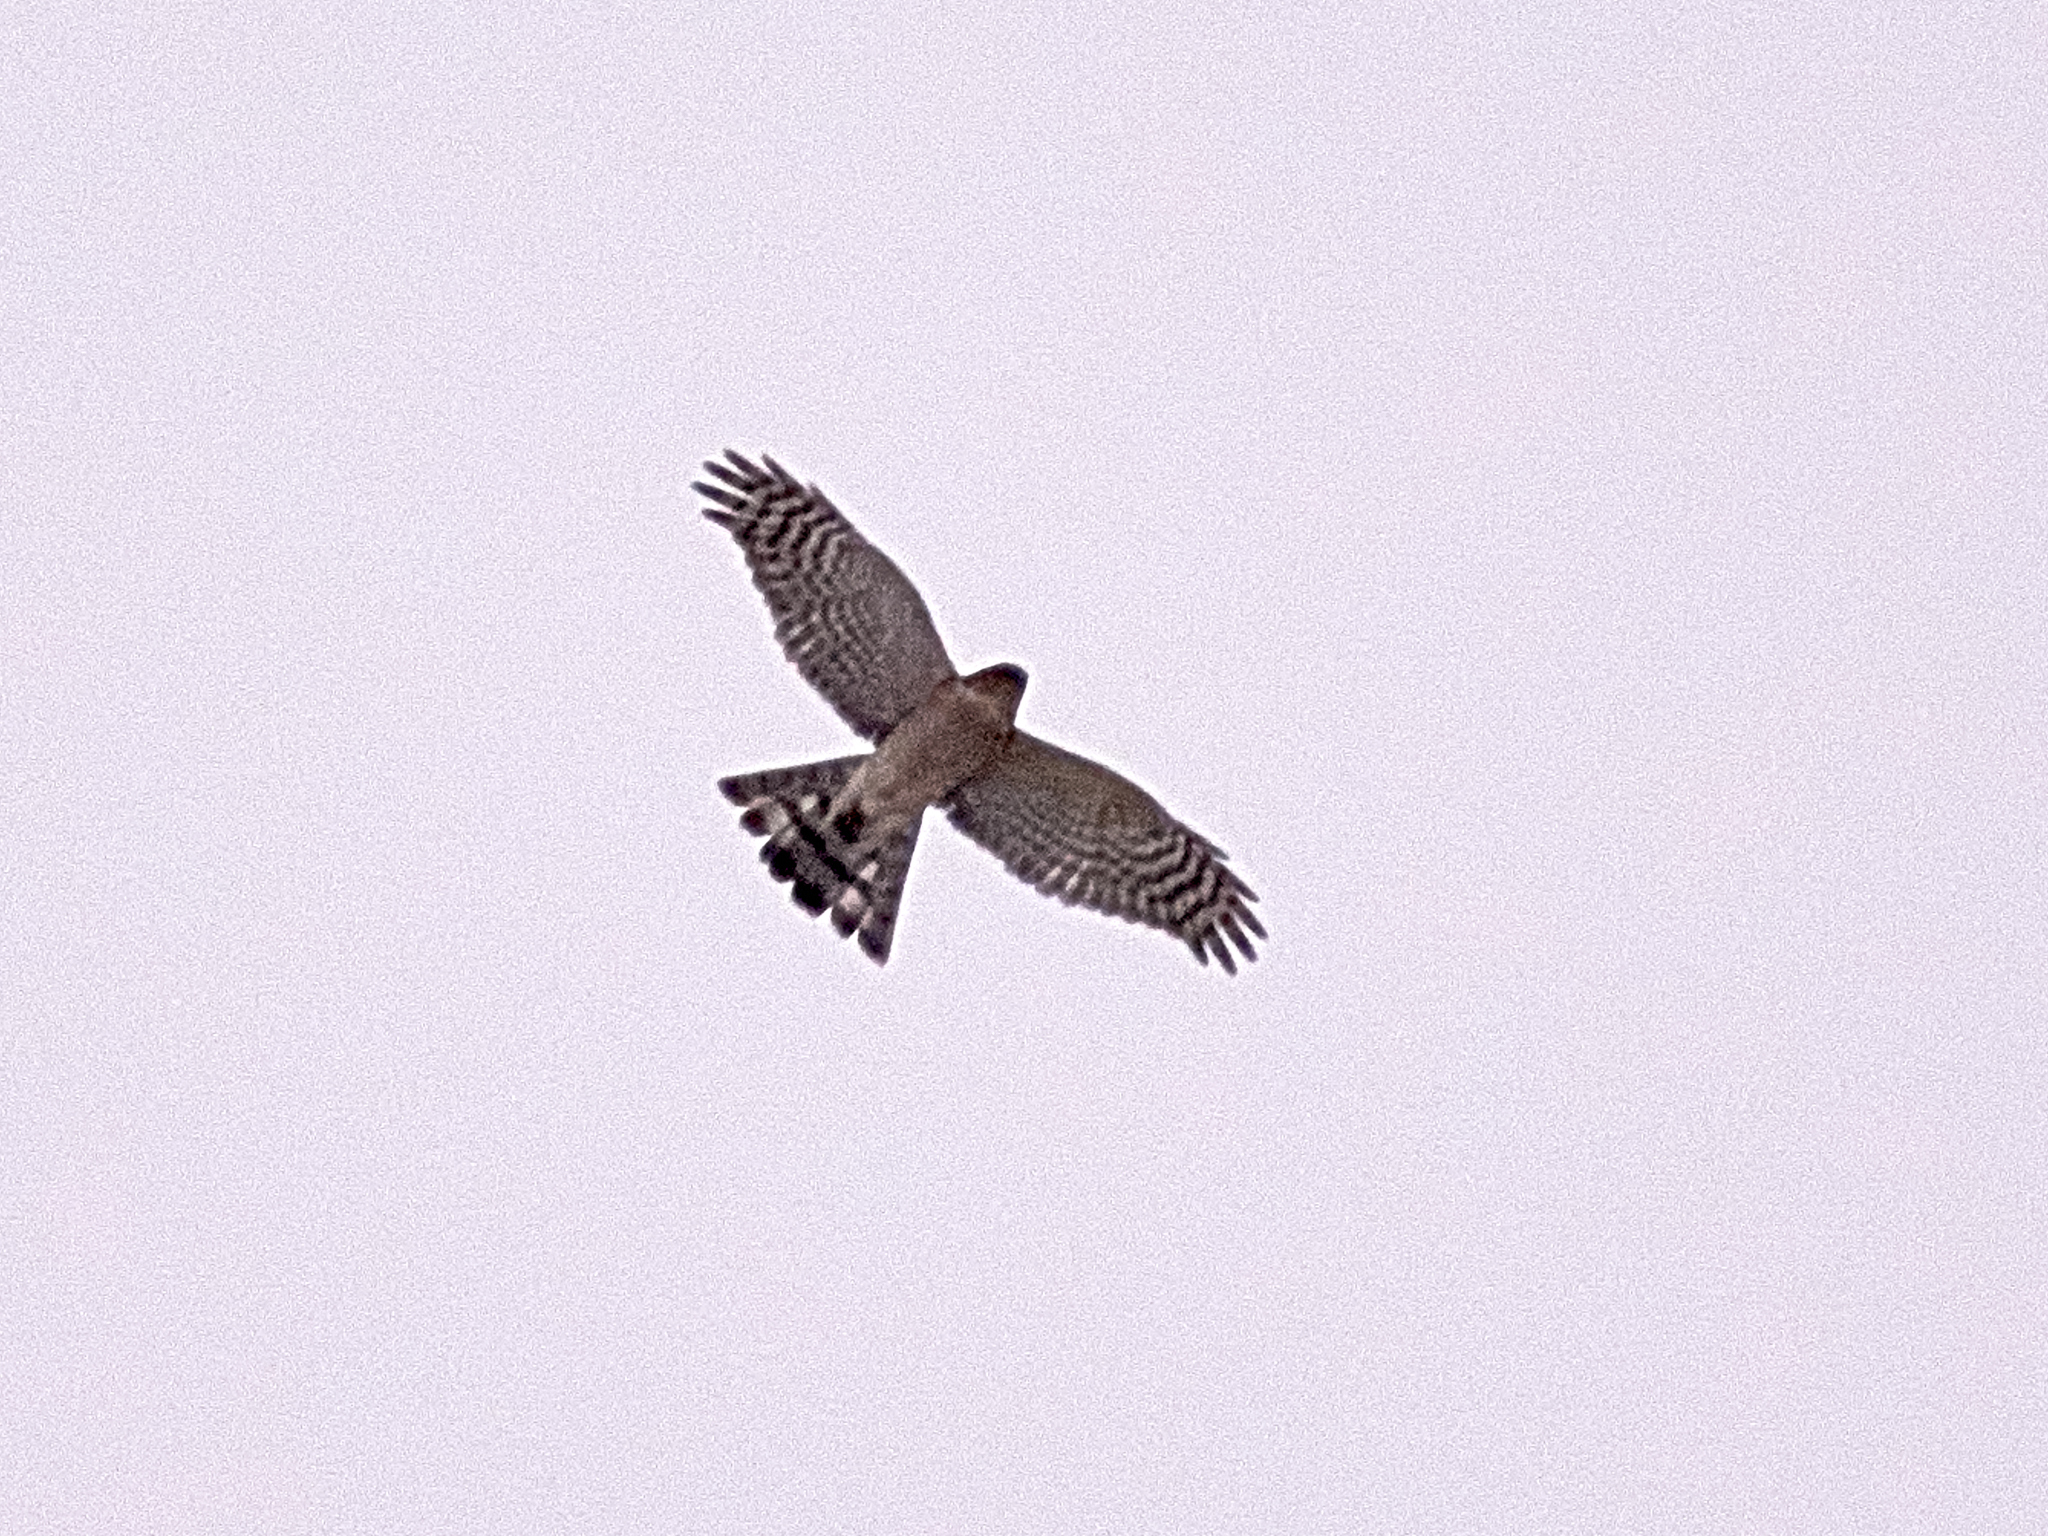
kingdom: Animalia
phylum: Chordata
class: Aves
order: Accipitriformes
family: Accipitridae
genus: Accipiter
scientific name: Accipiter nisus
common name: Eurasian sparrowhawk
